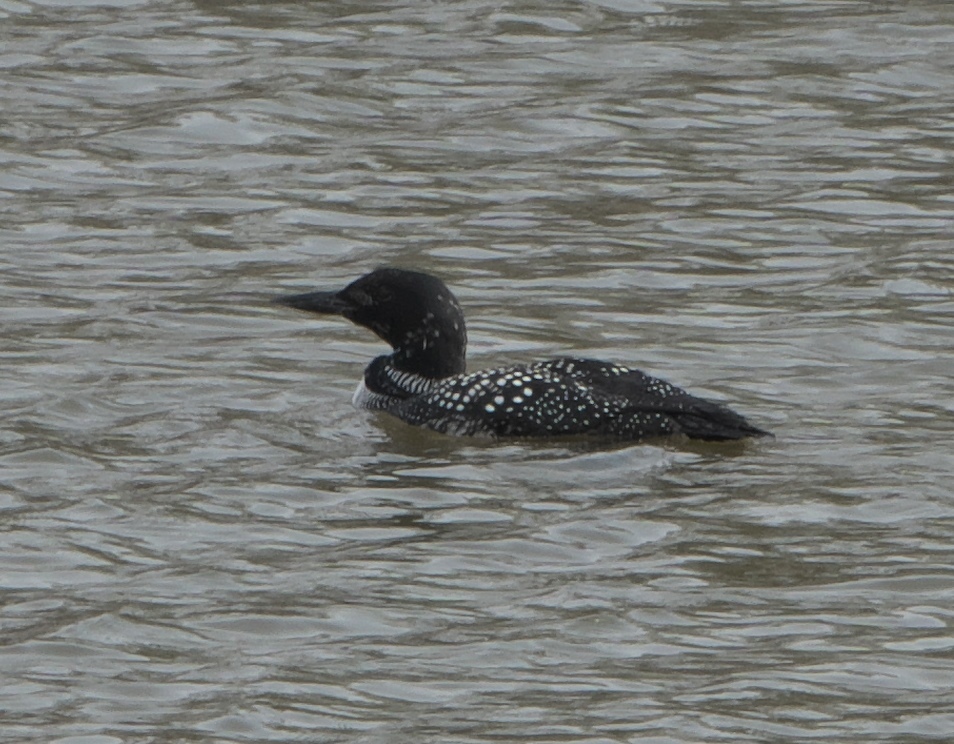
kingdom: Animalia
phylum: Chordata
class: Aves
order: Gaviiformes
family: Gaviidae
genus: Gavia
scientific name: Gavia immer
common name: Common loon
